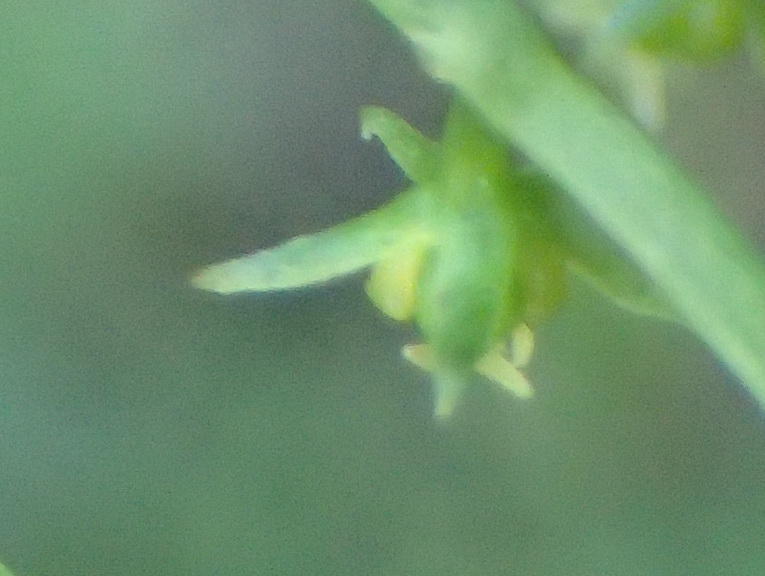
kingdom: Plantae
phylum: Tracheophyta
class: Magnoliopsida
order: Malpighiales
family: Euphorbiaceae
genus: Adenocline
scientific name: Adenocline acuta
